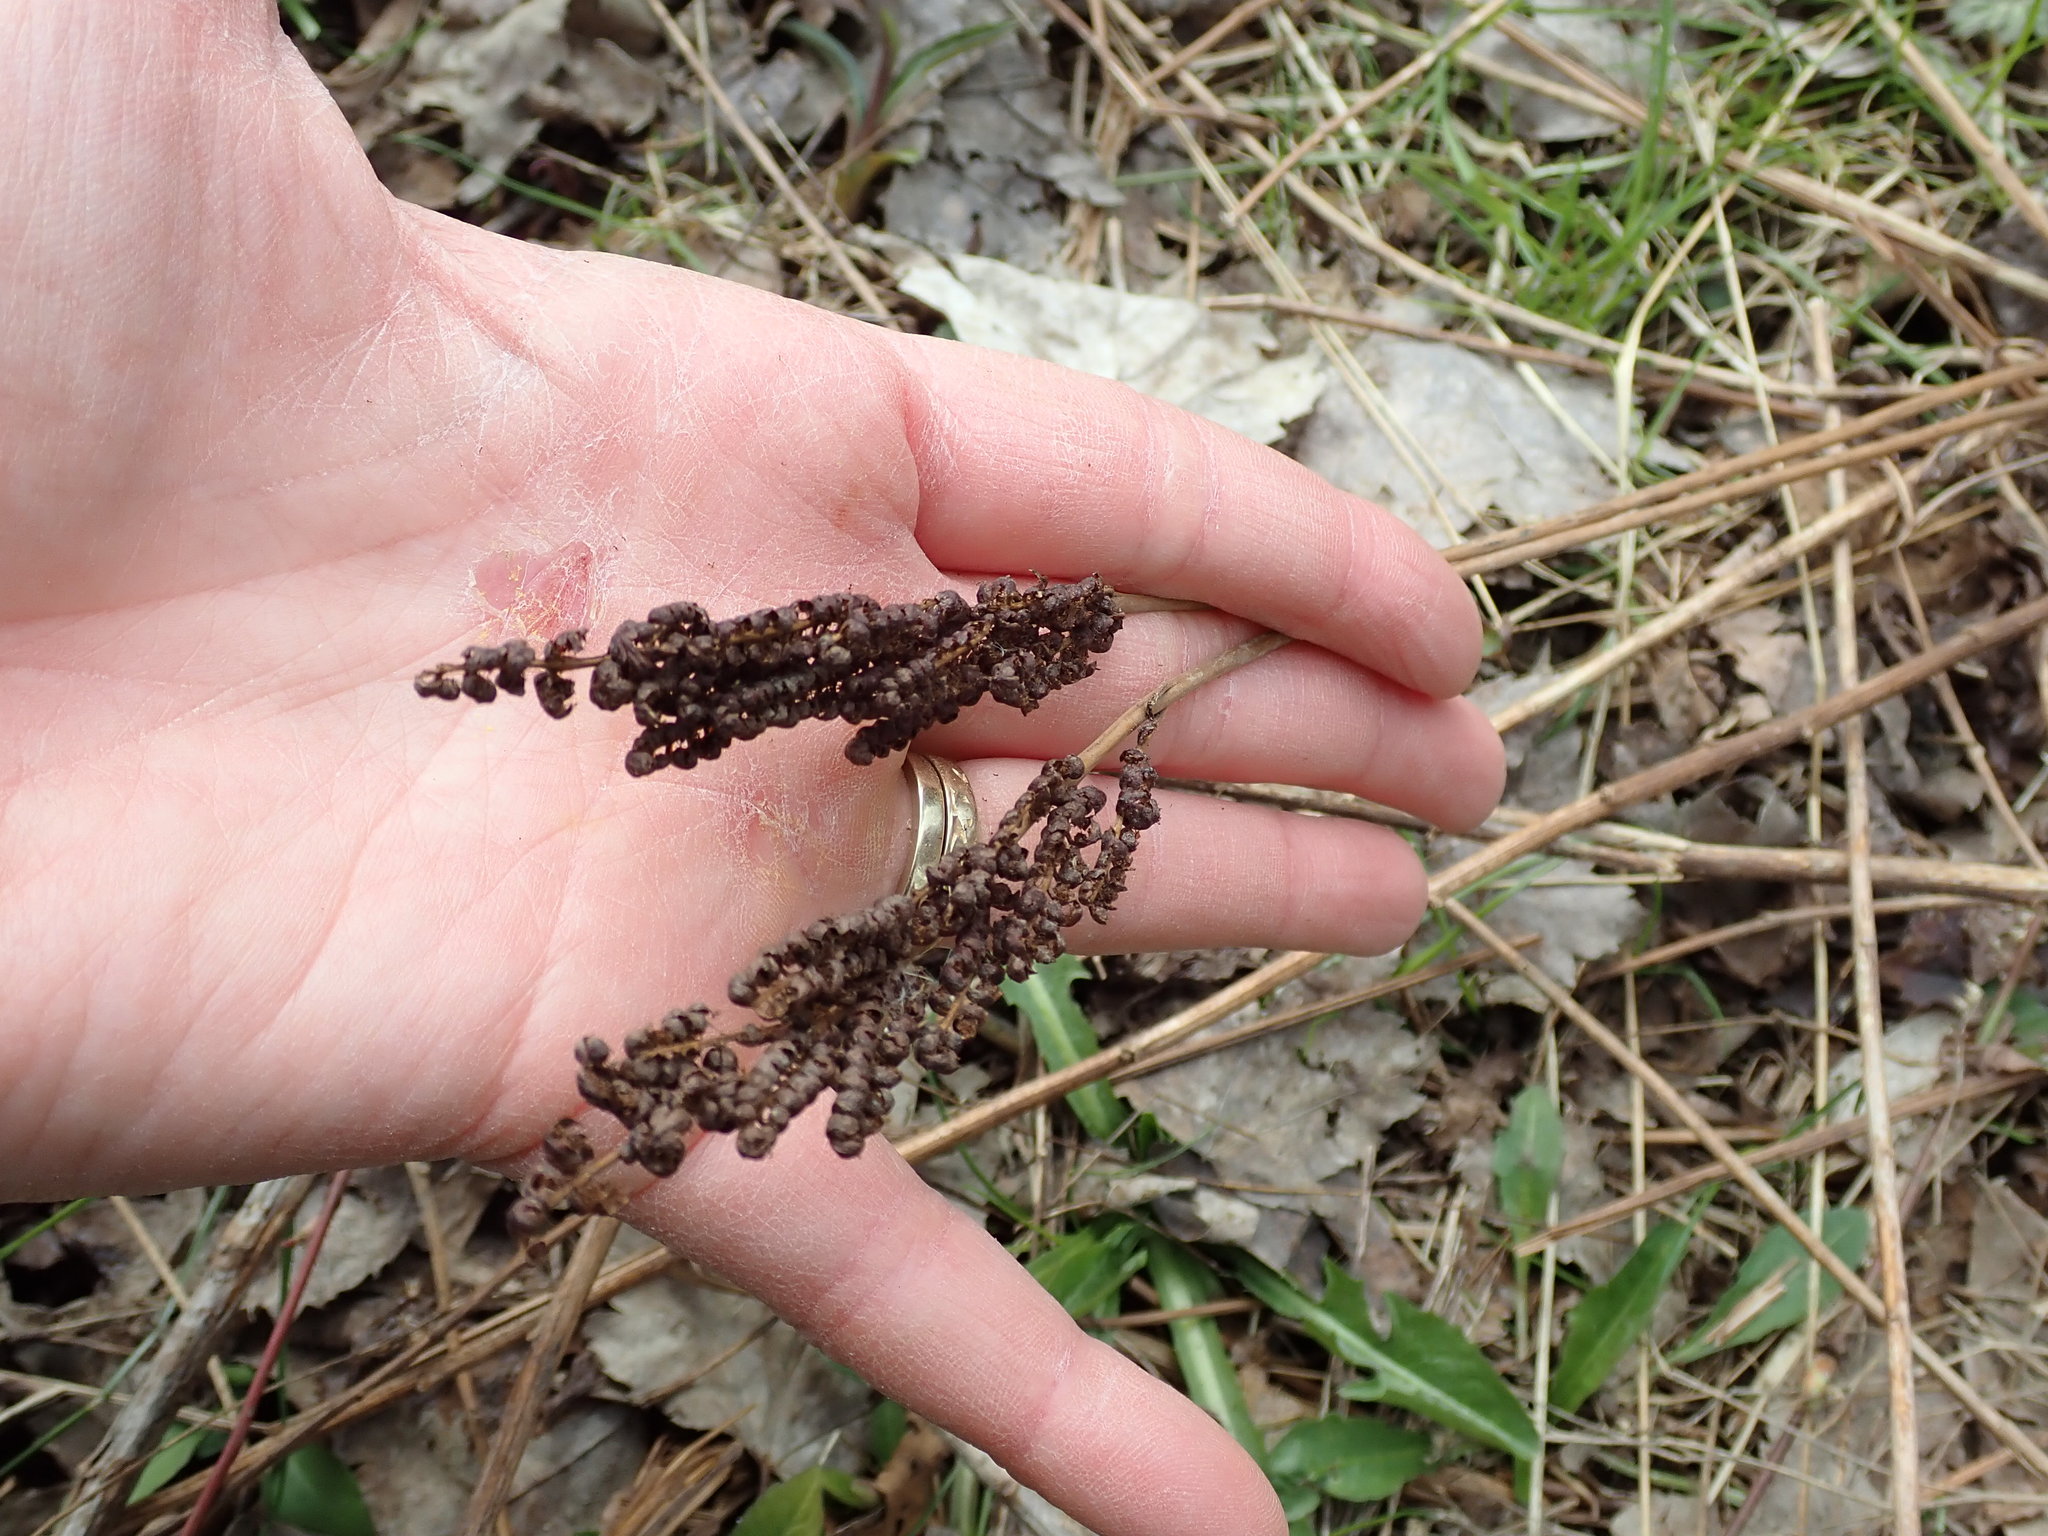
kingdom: Plantae
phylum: Tracheophyta
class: Polypodiopsida
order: Polypodiales
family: Onocleaceae
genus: Onoclea
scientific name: Onoclea sensibilis
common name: Sensitive fern
